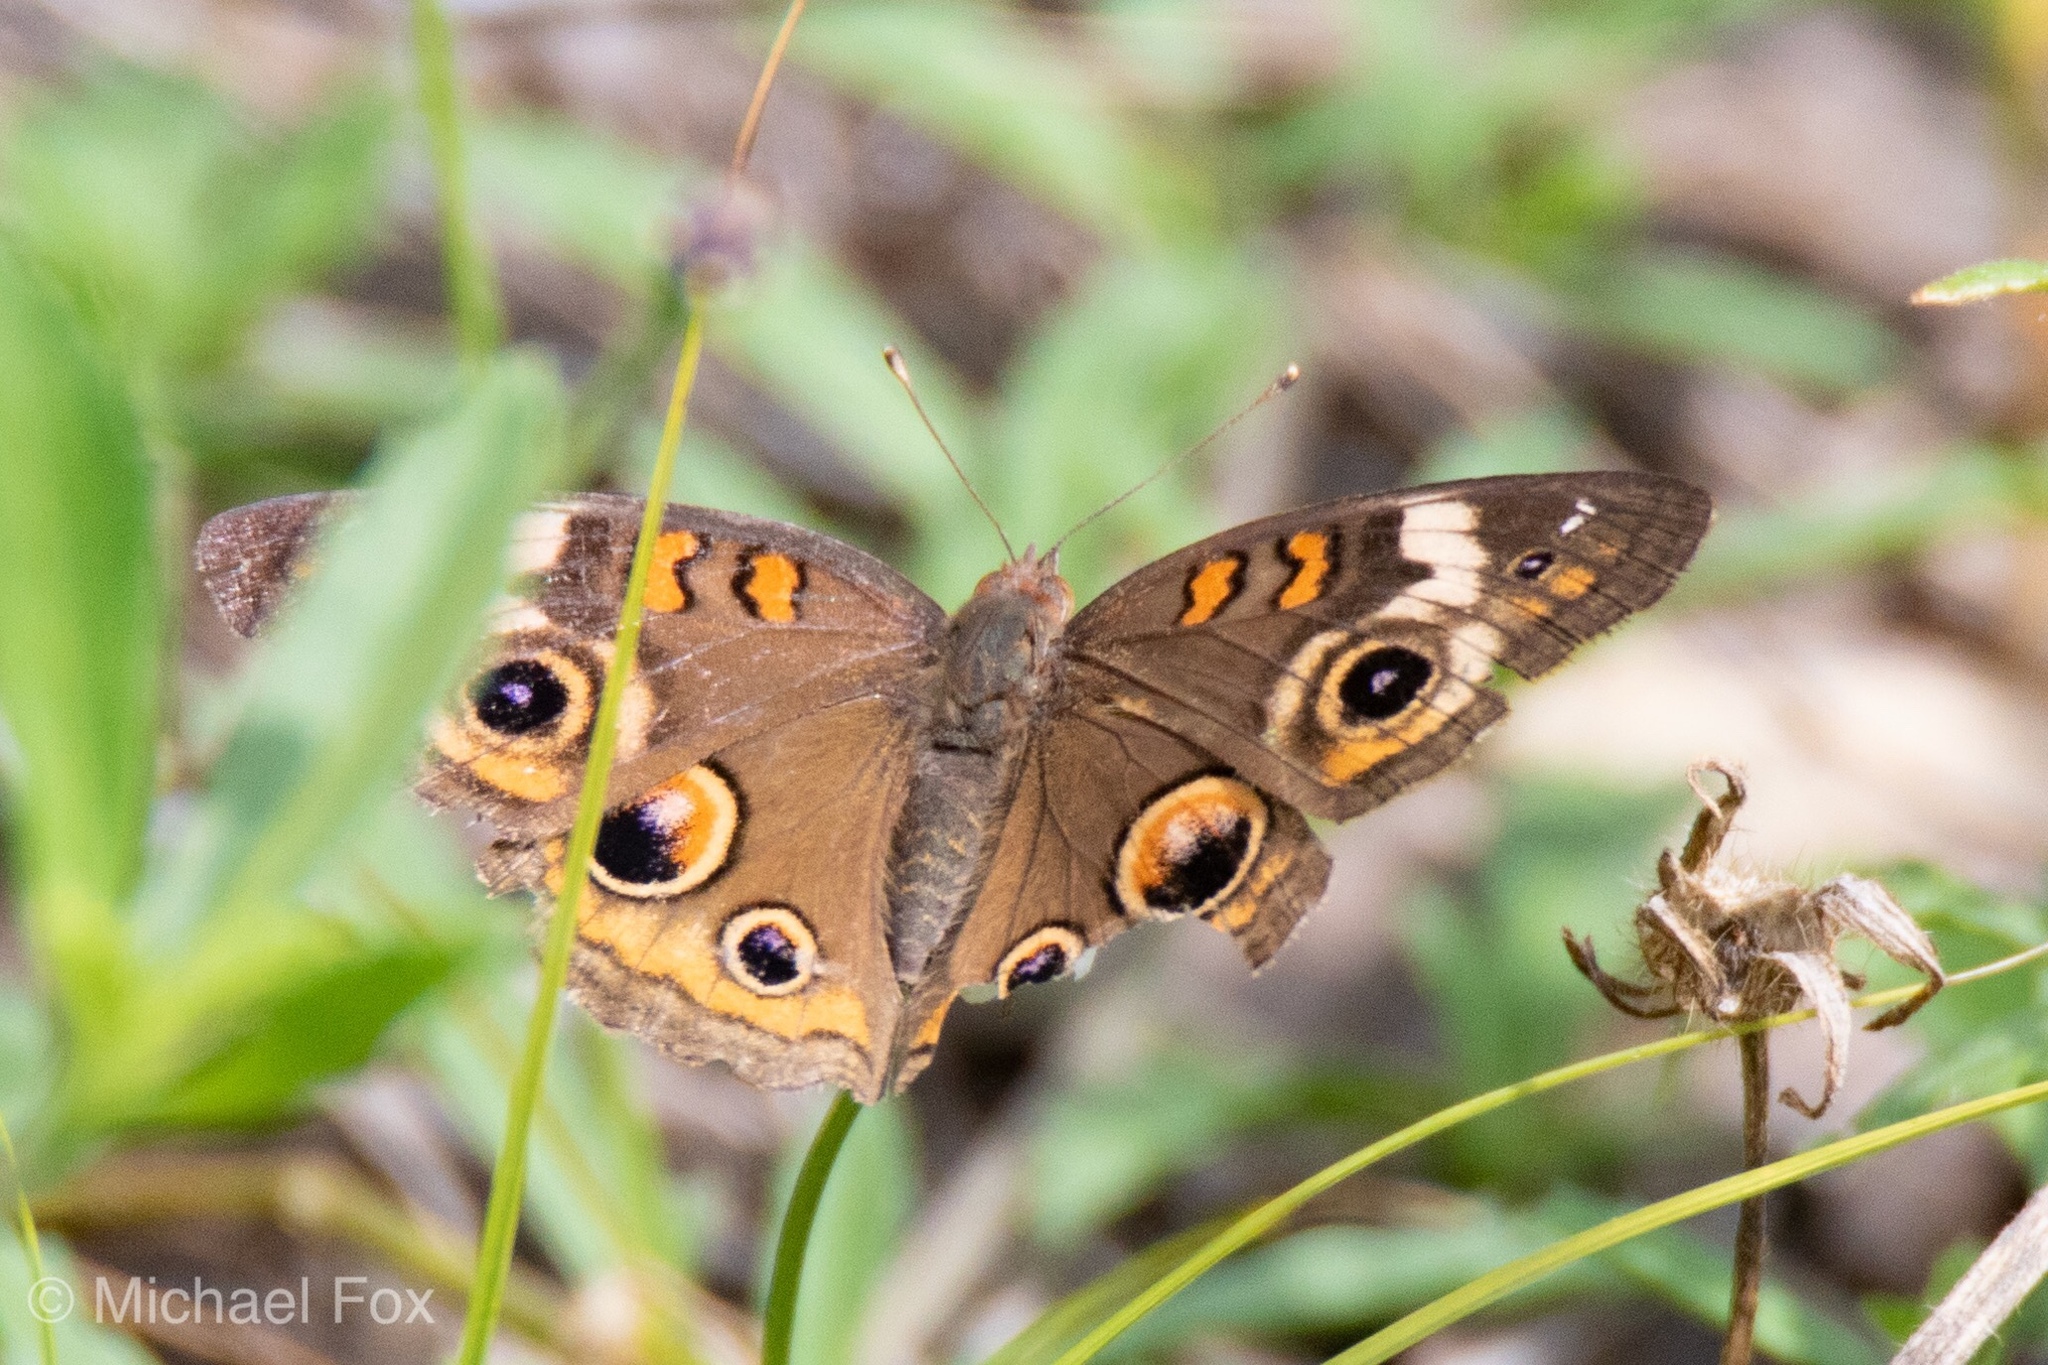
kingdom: Animalia
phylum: Arthropoda
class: Insecta
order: Lepidoptera
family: Nymphalidae
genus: Junonia
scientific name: Junonia coenia
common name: Common buckeye
